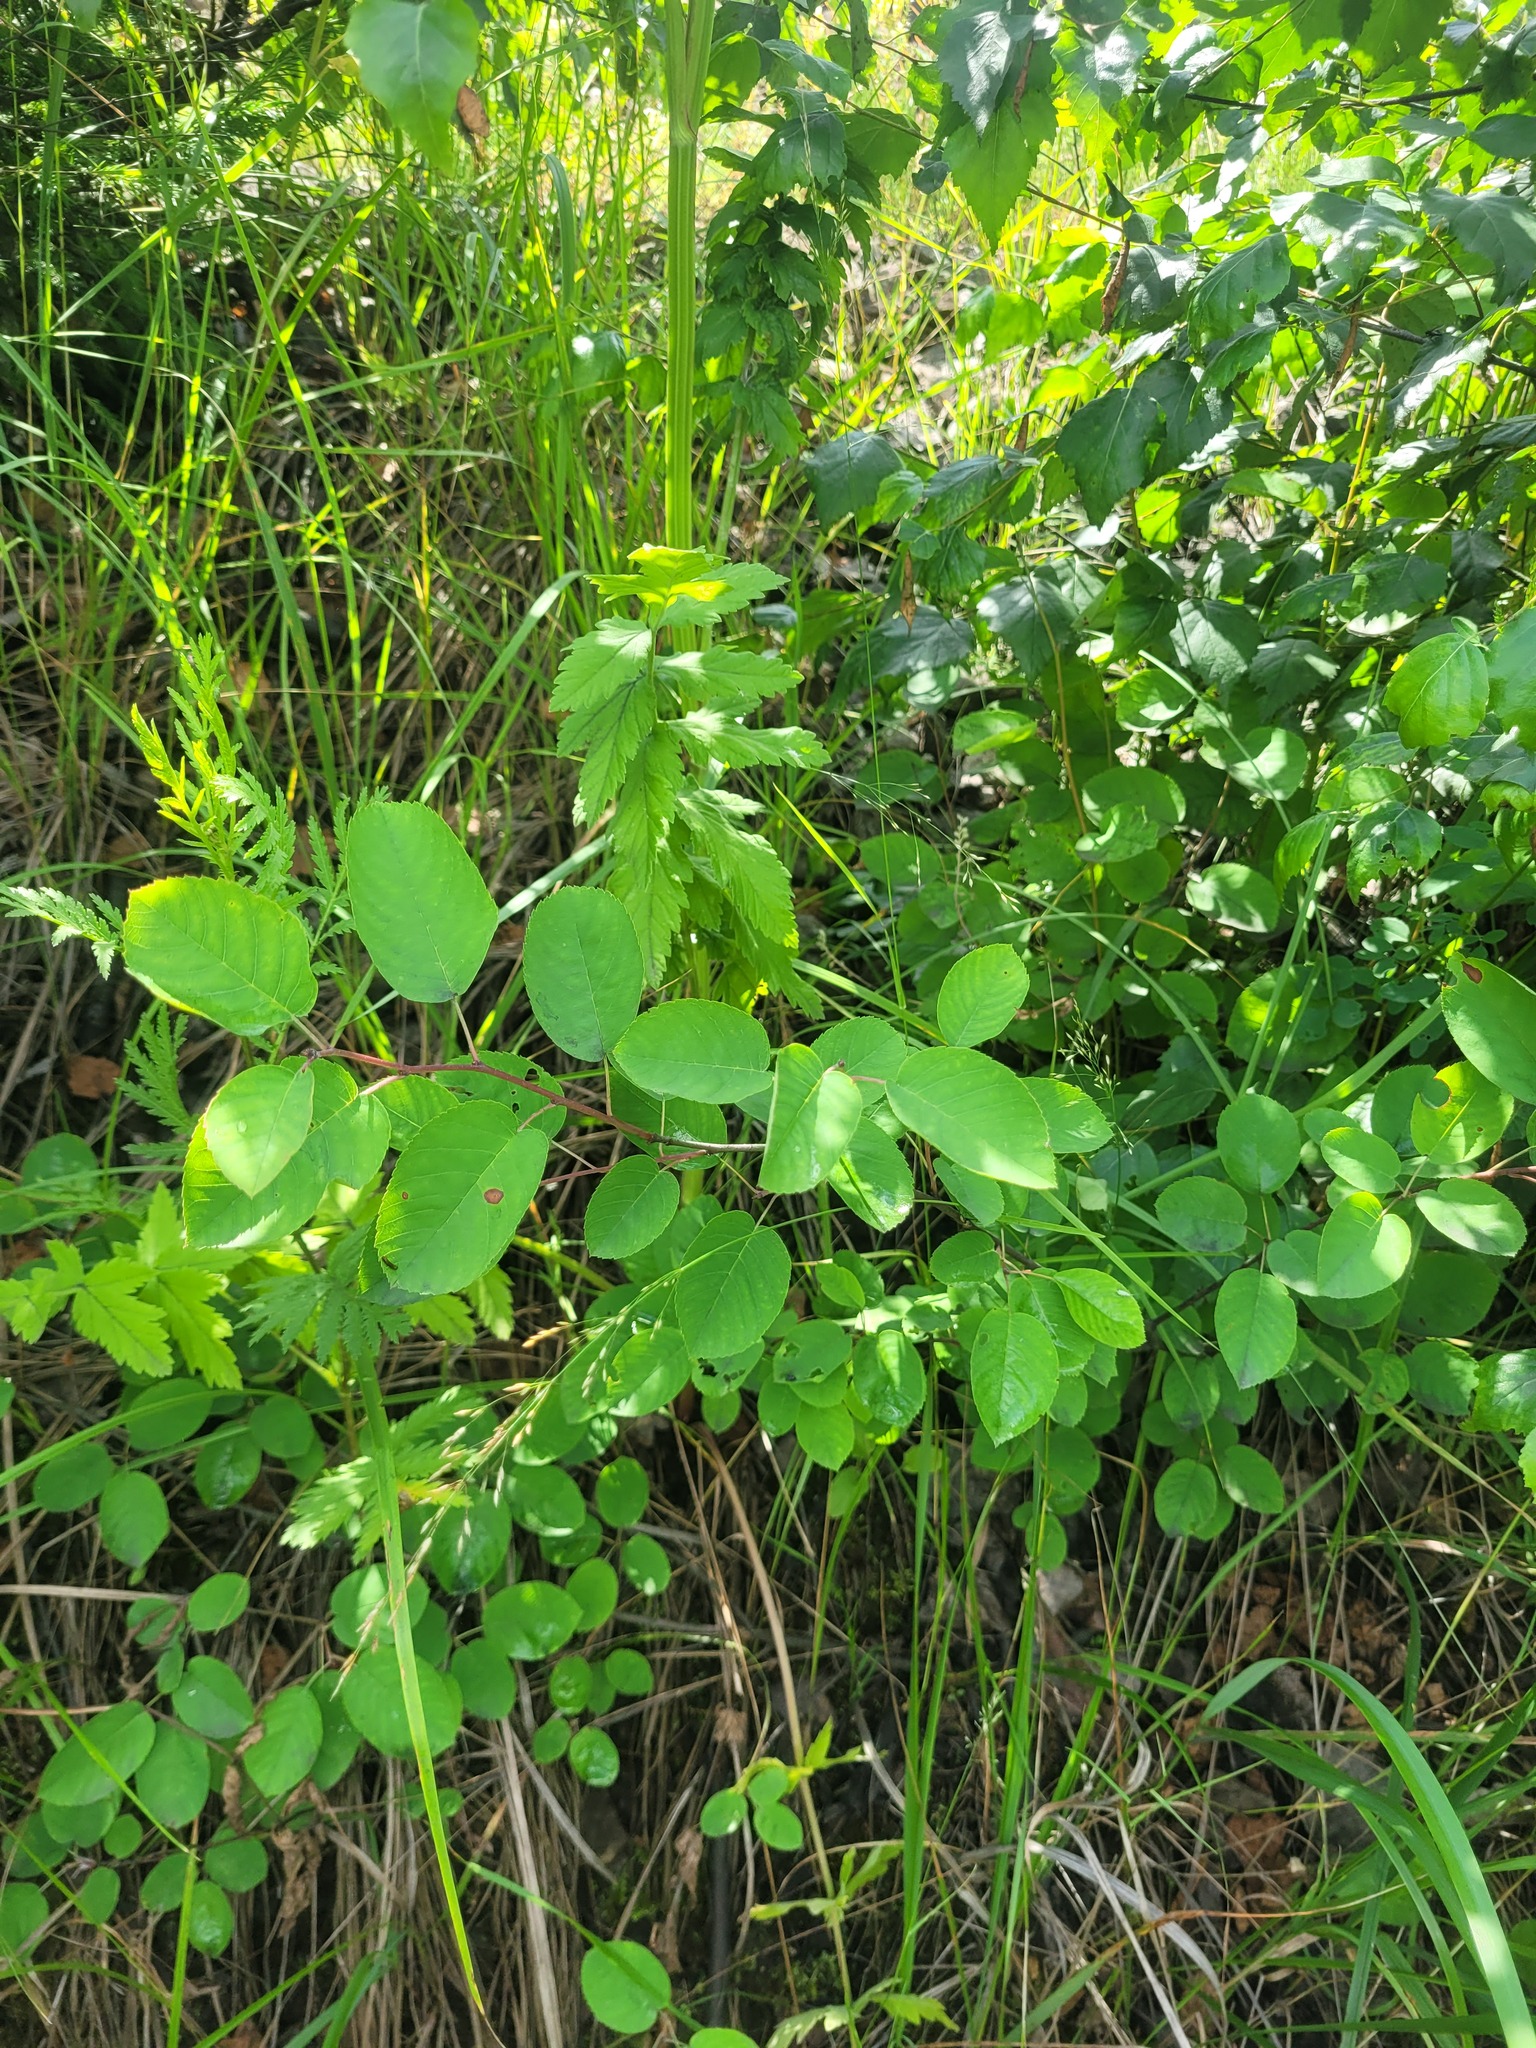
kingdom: Plantae
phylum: Tracheophyta
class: Magnoliopsida
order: Rosales
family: Rosaceae
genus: Amelanchier
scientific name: Amelanchier
